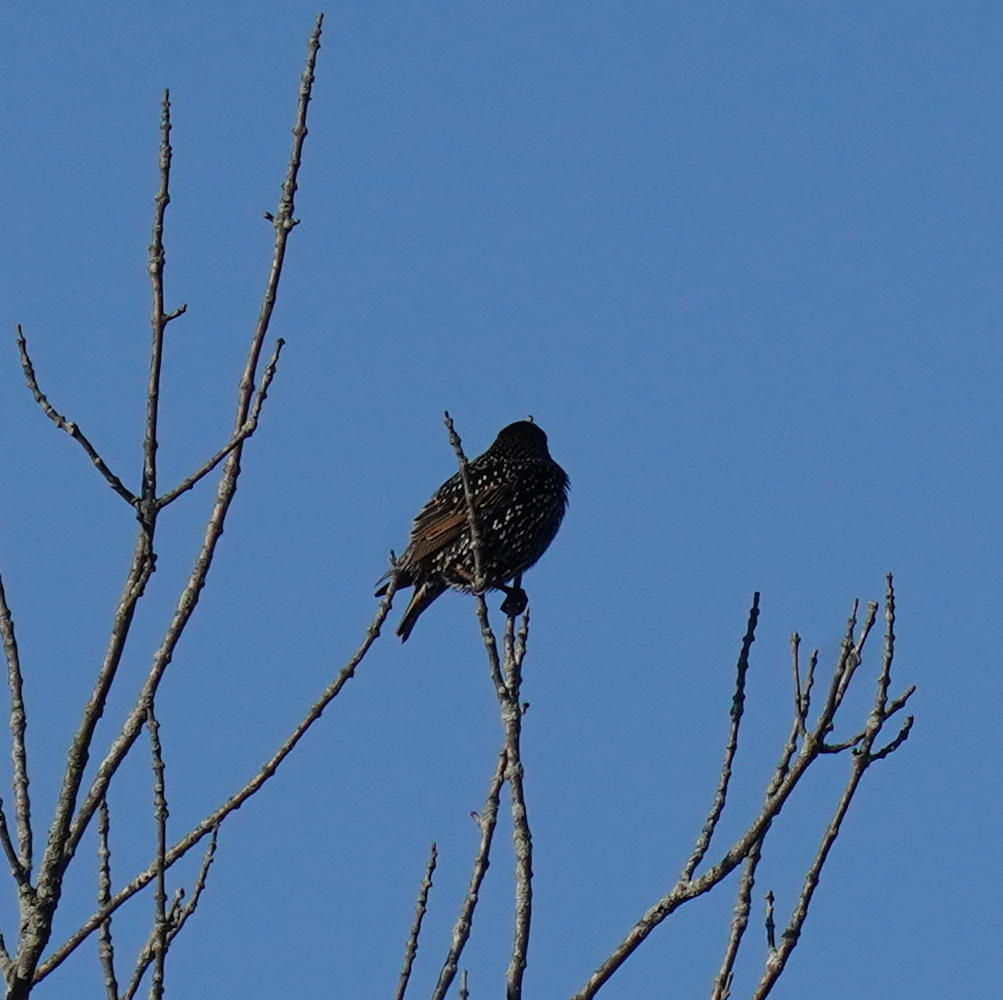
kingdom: Animalia
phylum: Chordata
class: Aves
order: Passeriformes
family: Sturnidae
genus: Sturnus
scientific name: Sturnus vulgaris
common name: Common starling
